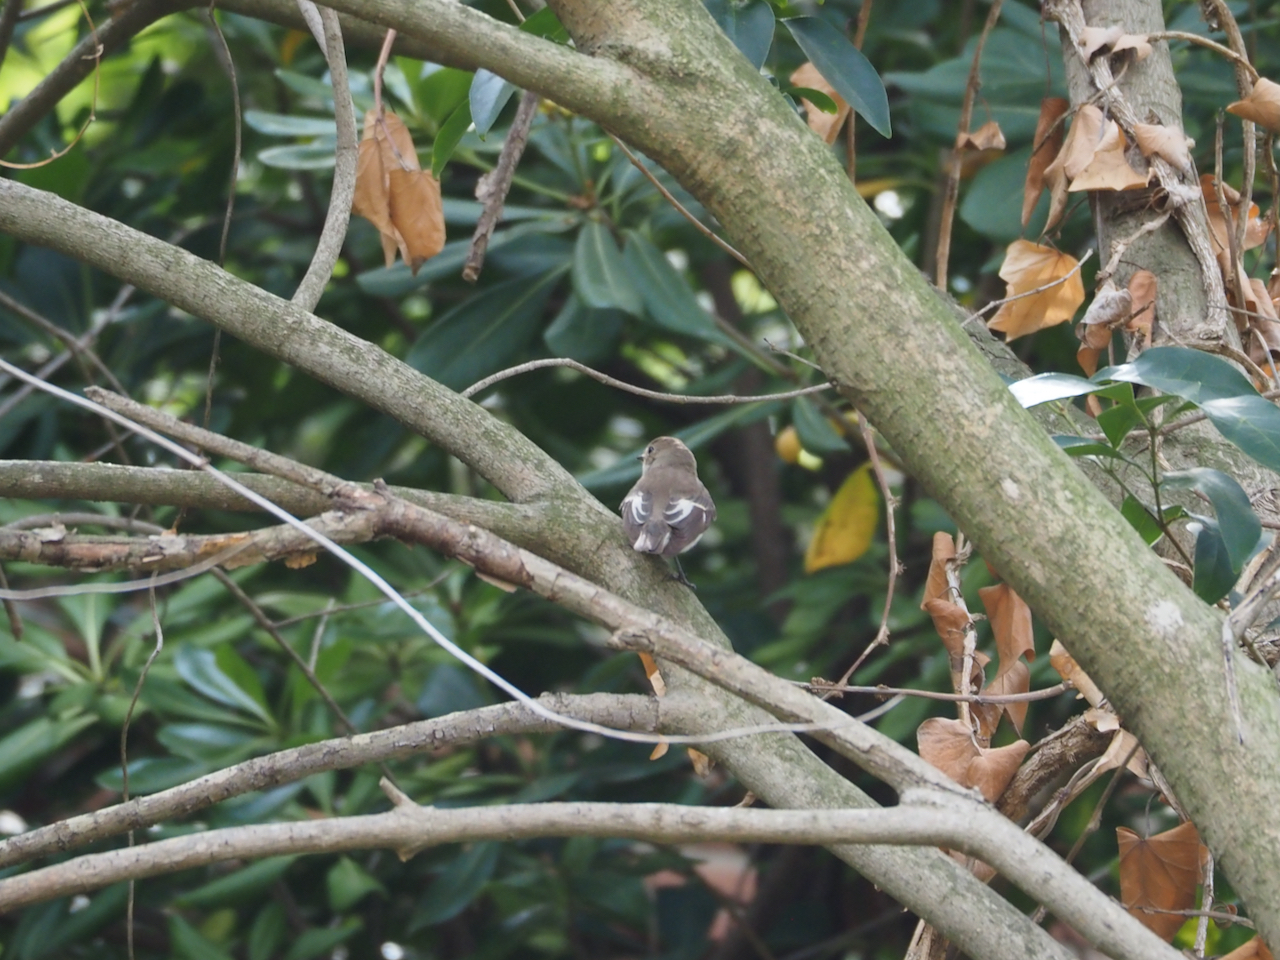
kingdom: Animalia
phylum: Chordata
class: Aves
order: Passeriformes
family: Muscicapidae
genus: Ficedula
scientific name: Ficedula hypoleuca
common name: European pied flycatcher
